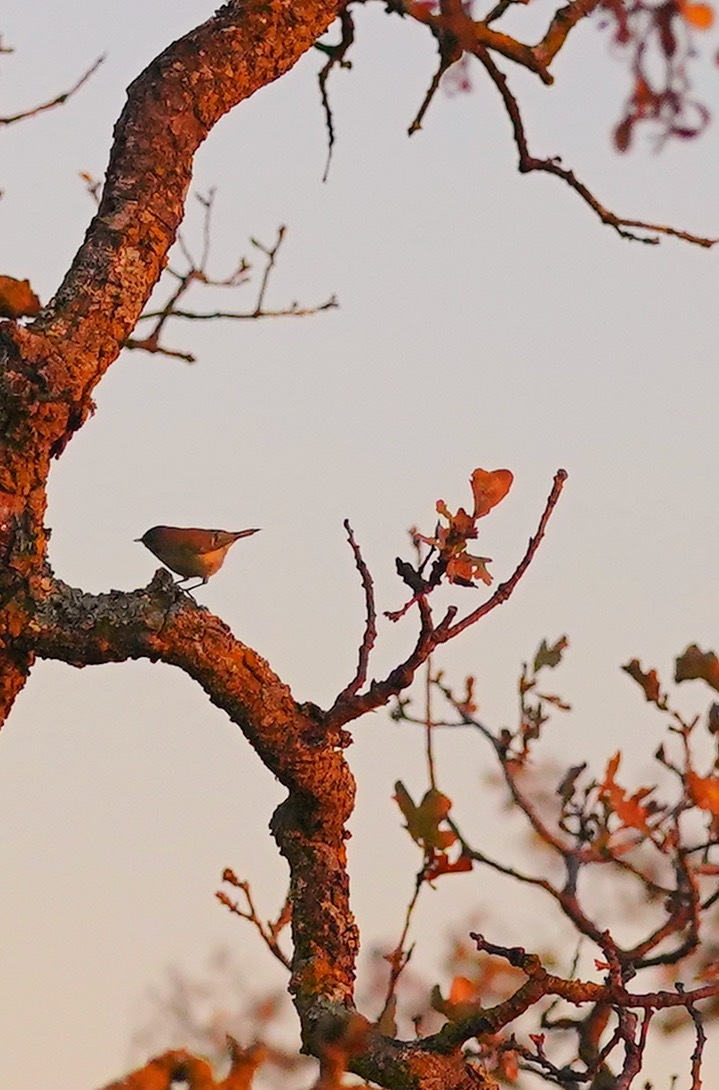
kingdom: Animalia
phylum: Chordata
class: Aves
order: Passeriformes
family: Regulidae
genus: Regulus
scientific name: Regulus calendula
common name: Ruby-crowned kinglet
